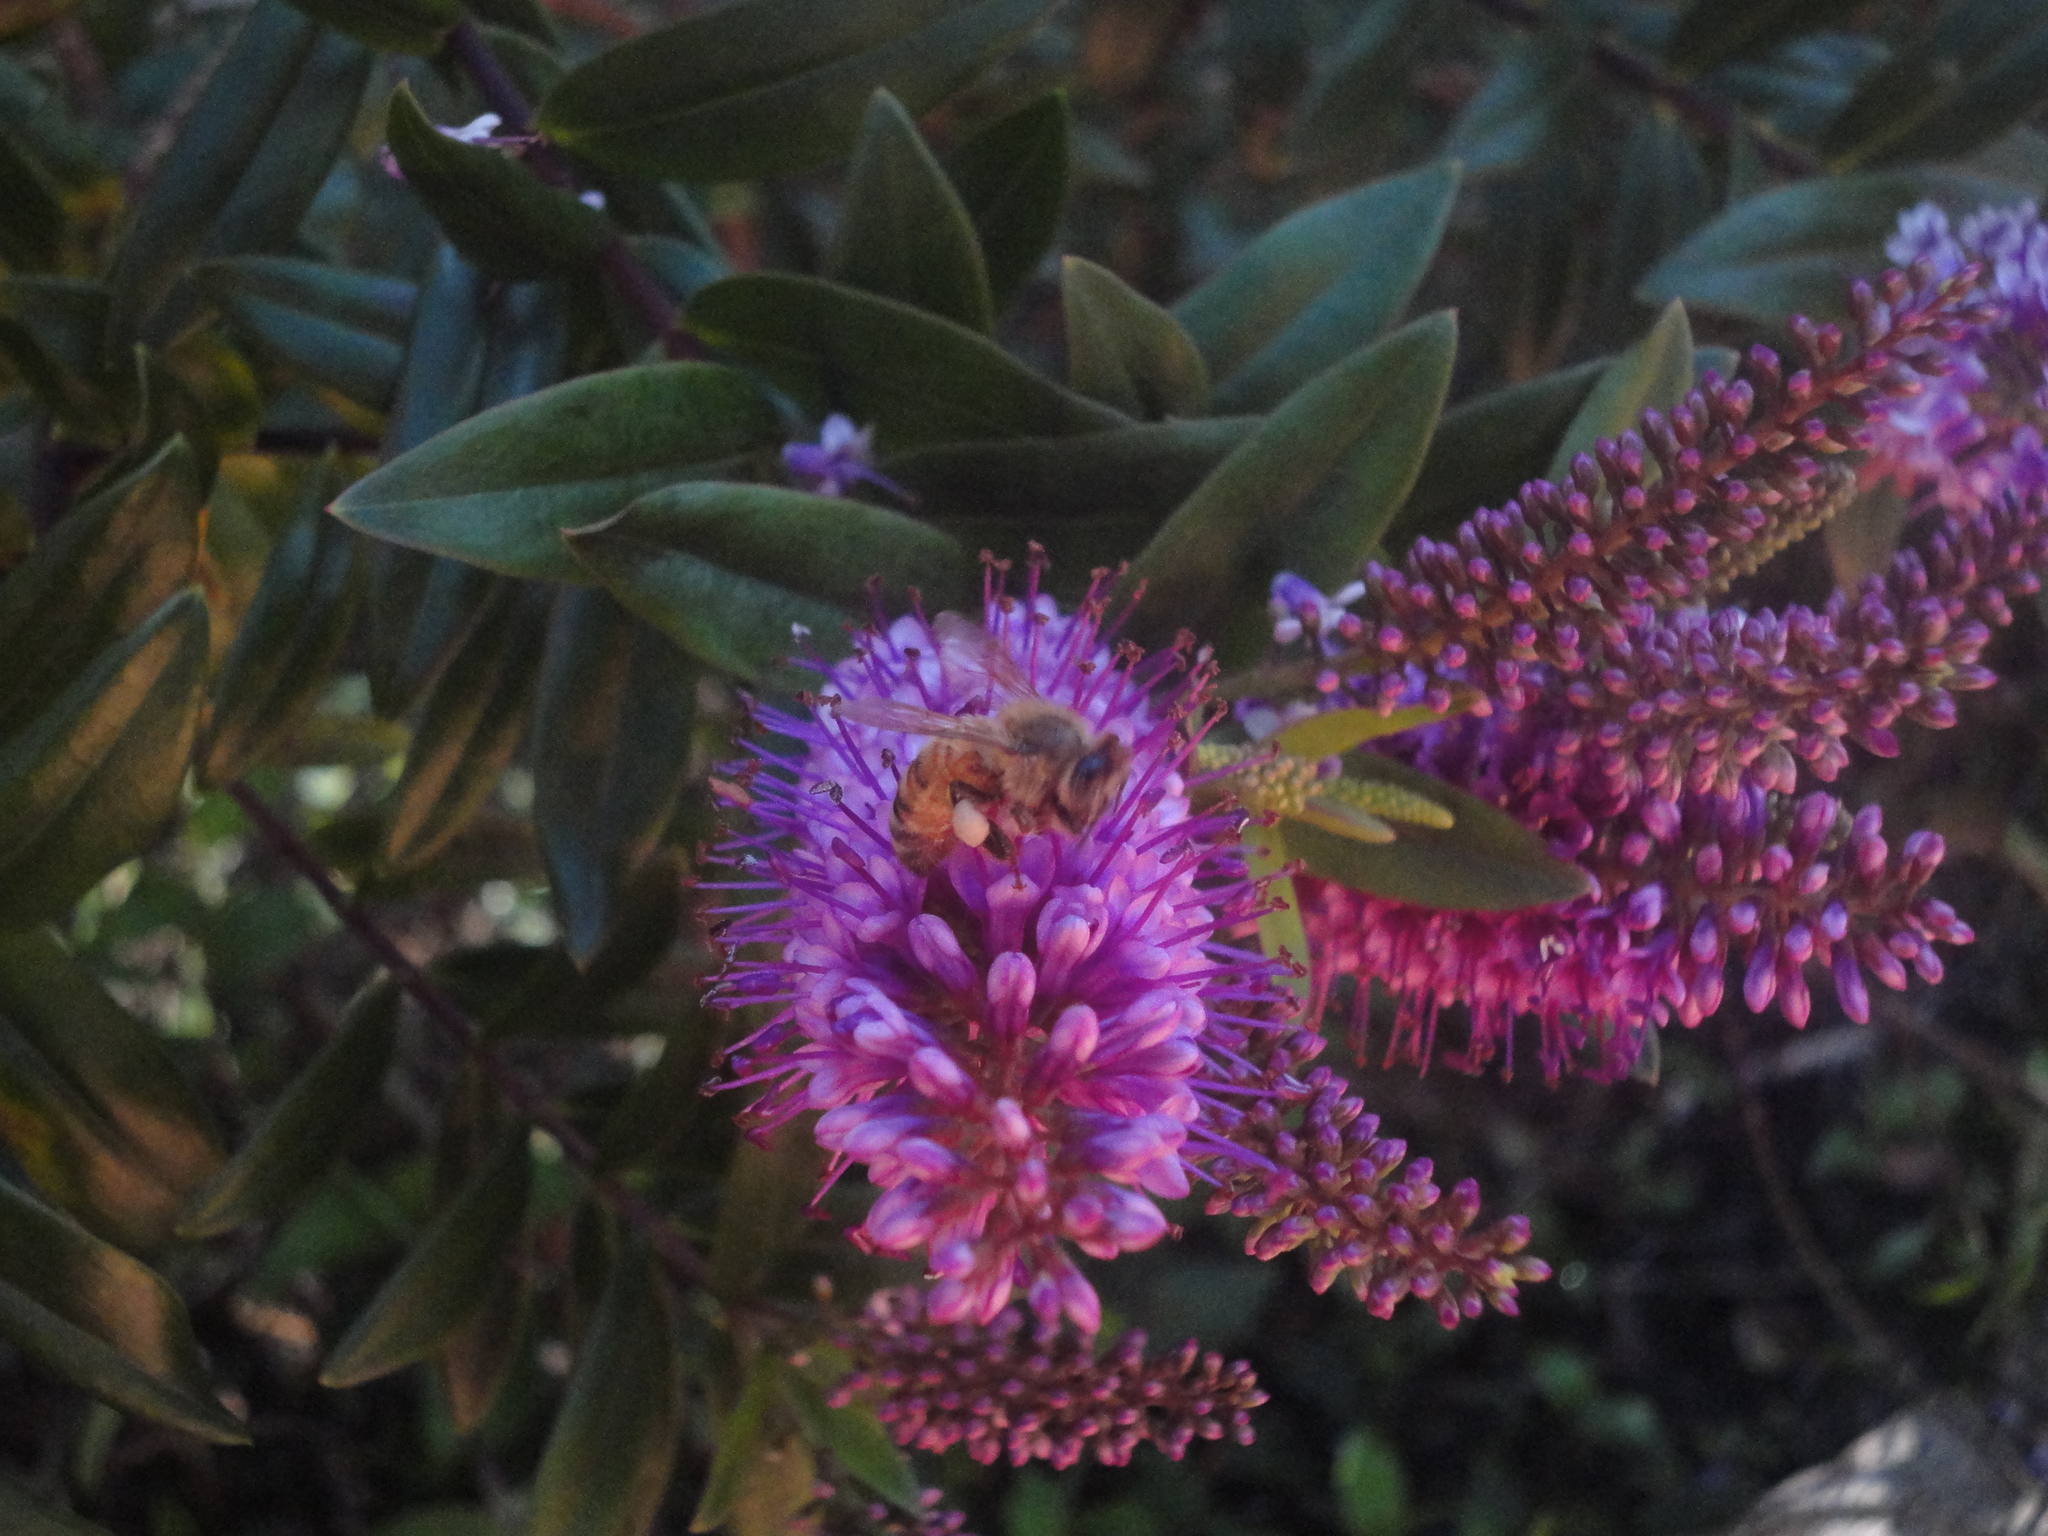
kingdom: Animalia
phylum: Arthropoda
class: Insecta
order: Hymenoptera
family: Apidae
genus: Apis
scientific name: Apis mellifera
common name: Honey bee
